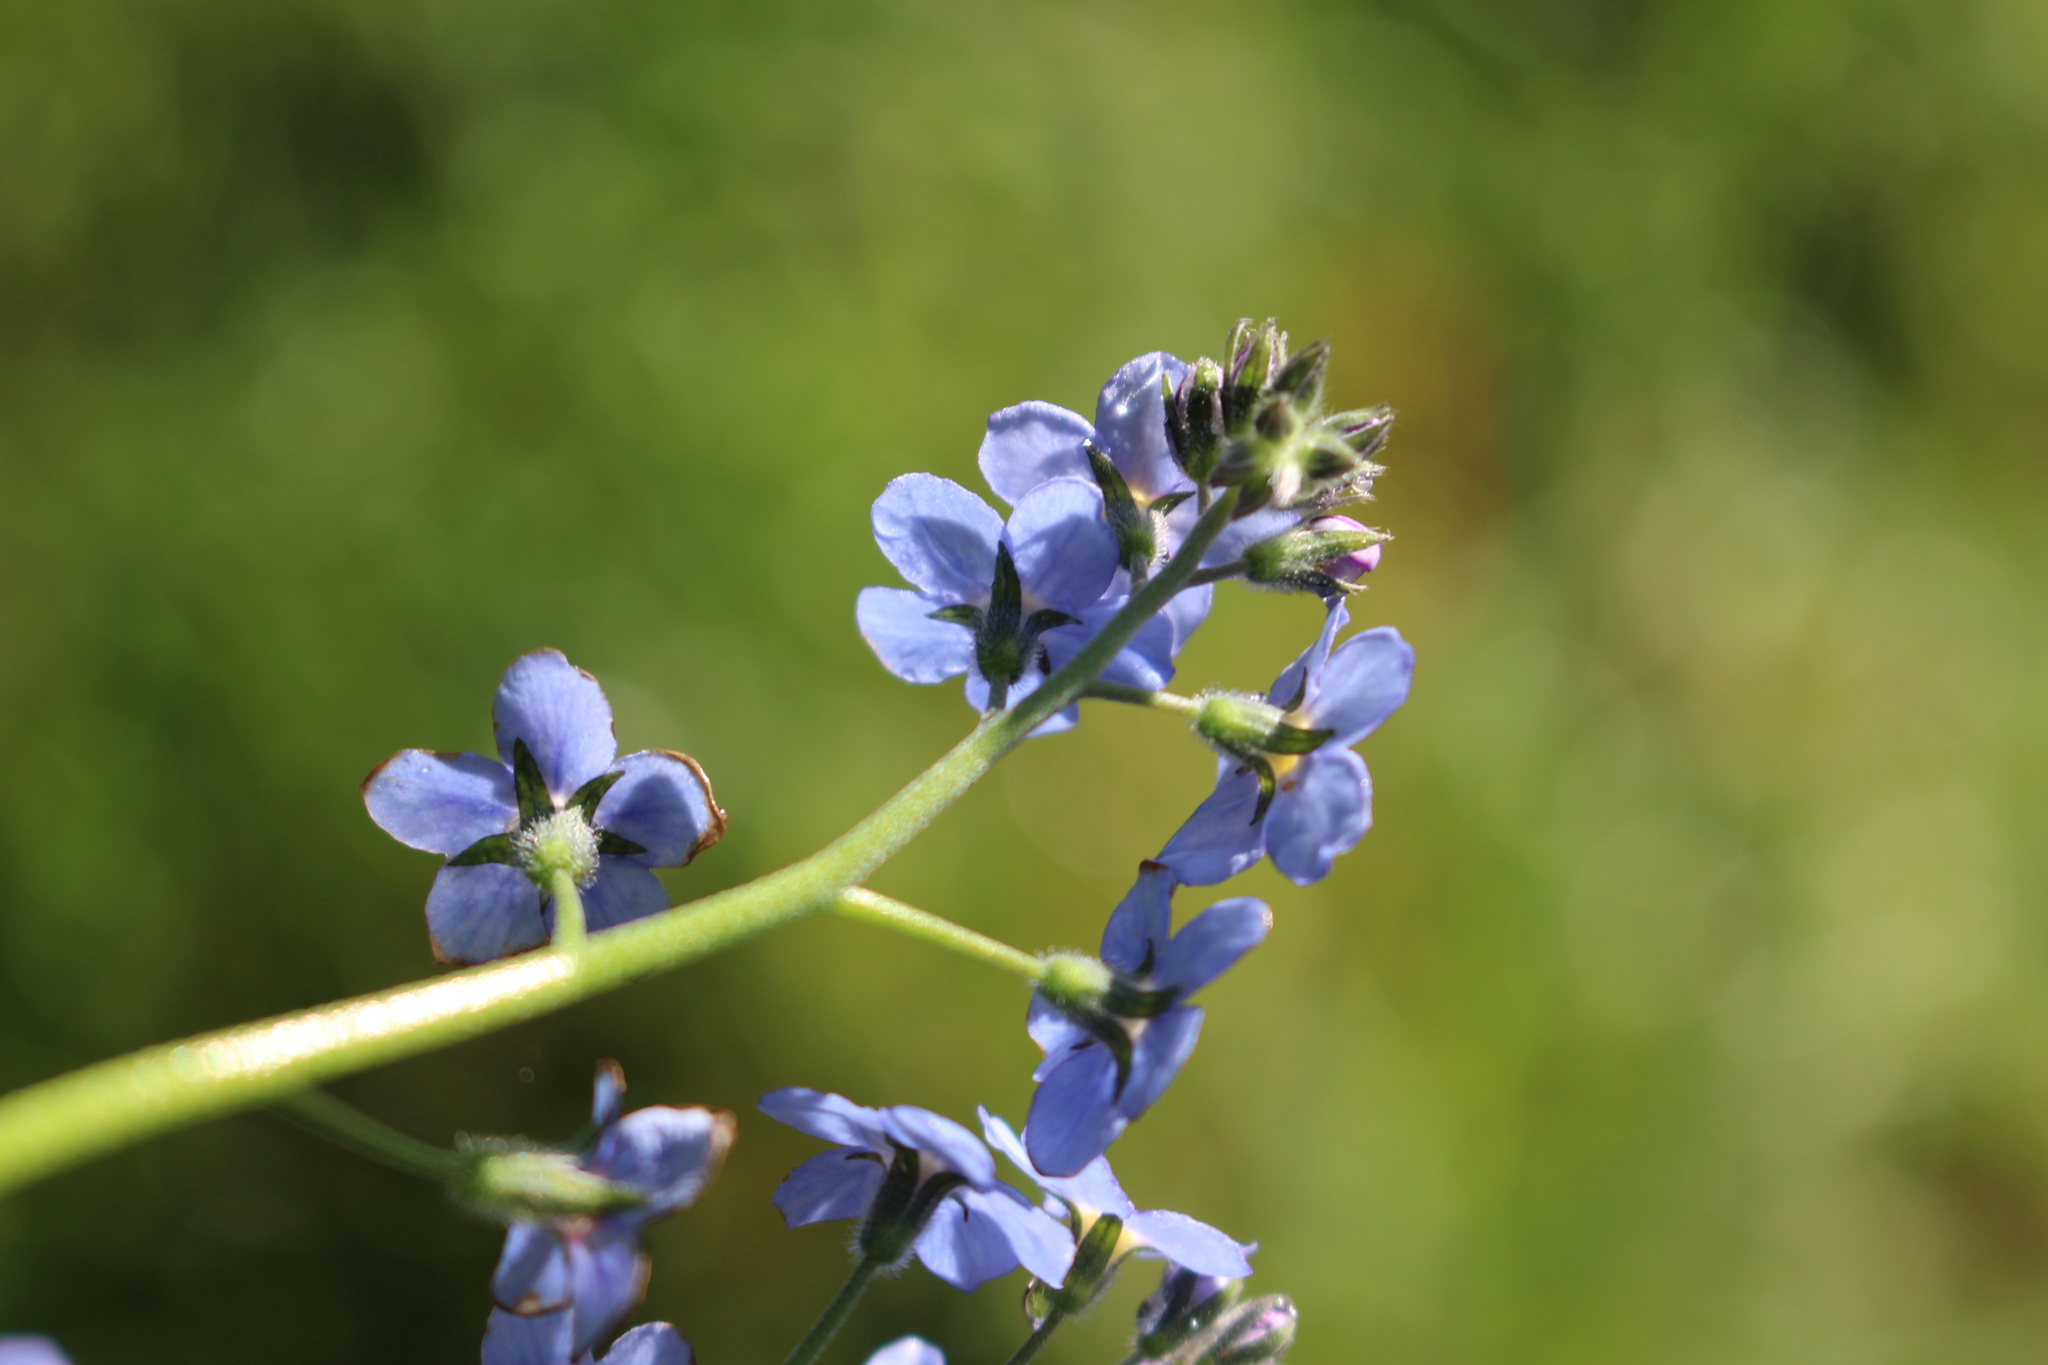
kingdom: Plantae
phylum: Tracheophyta
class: Magnoliopsida
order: Boraginales
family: Boraginaceae
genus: Myosotis
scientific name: Myosotis sylvatica
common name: Wood forget-me-not
